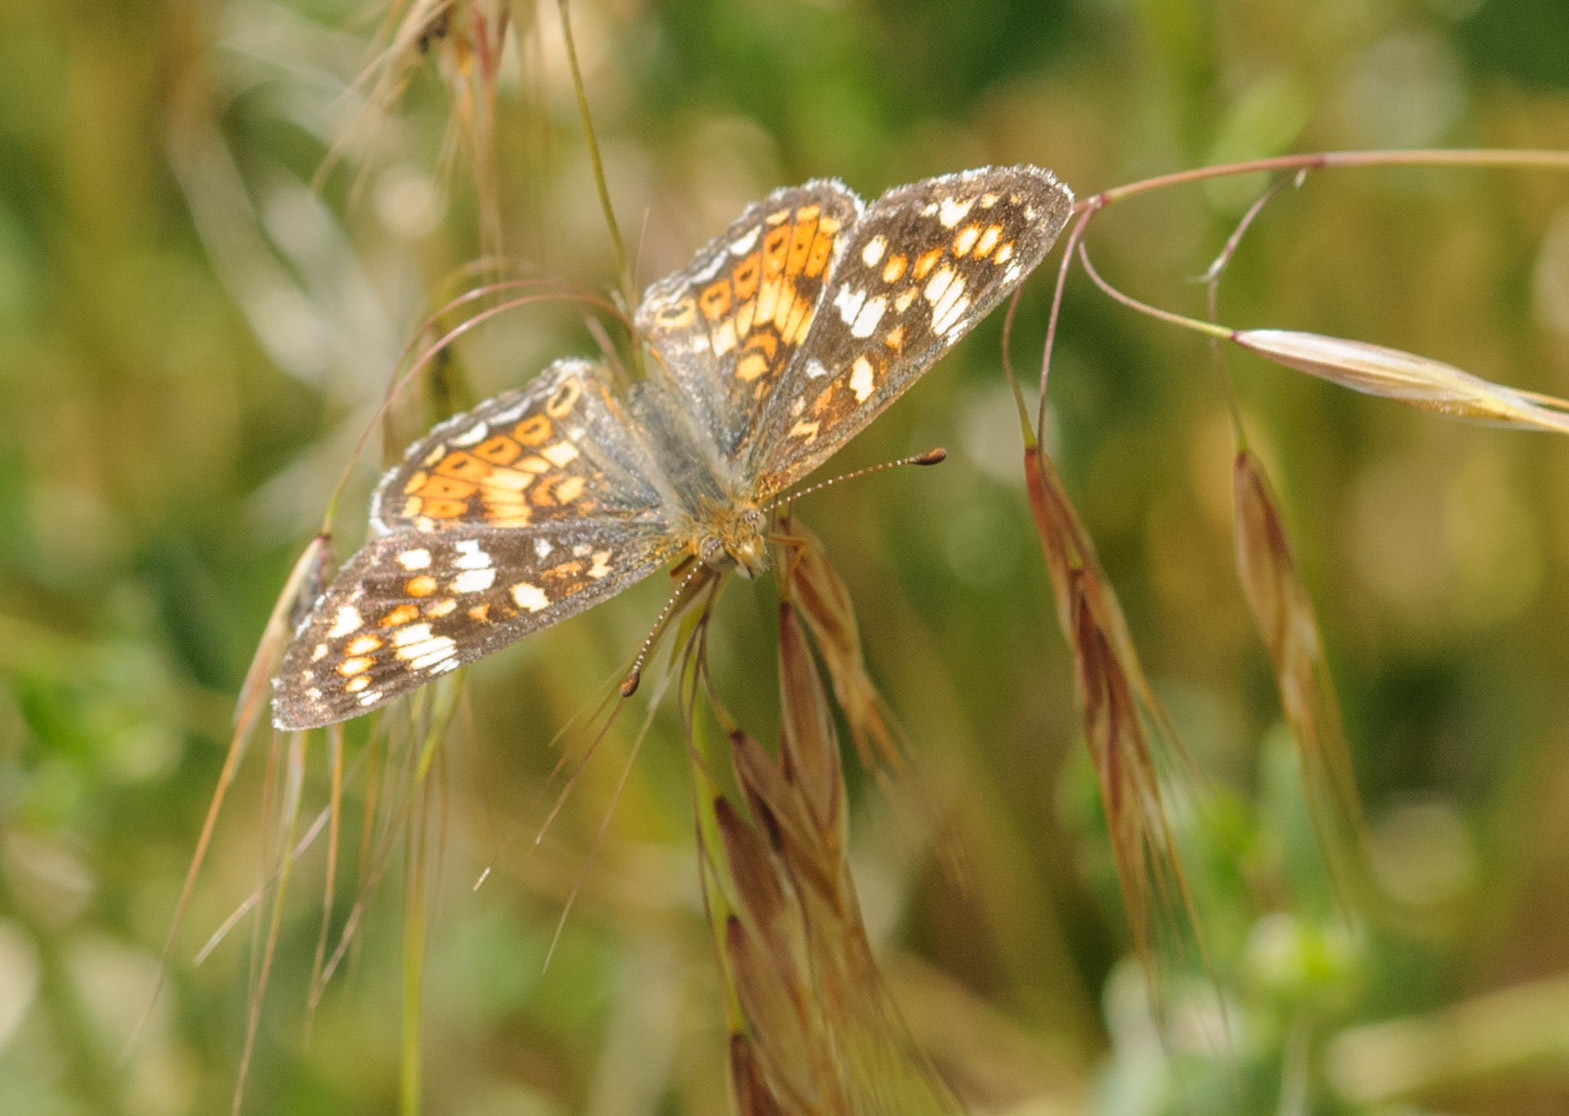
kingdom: Animalia
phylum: Arthropoda
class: Insecta
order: Lepidoptera
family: Nymphalidae
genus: Phyciodes
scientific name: Phyciodes tharos
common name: Pearl crescent
